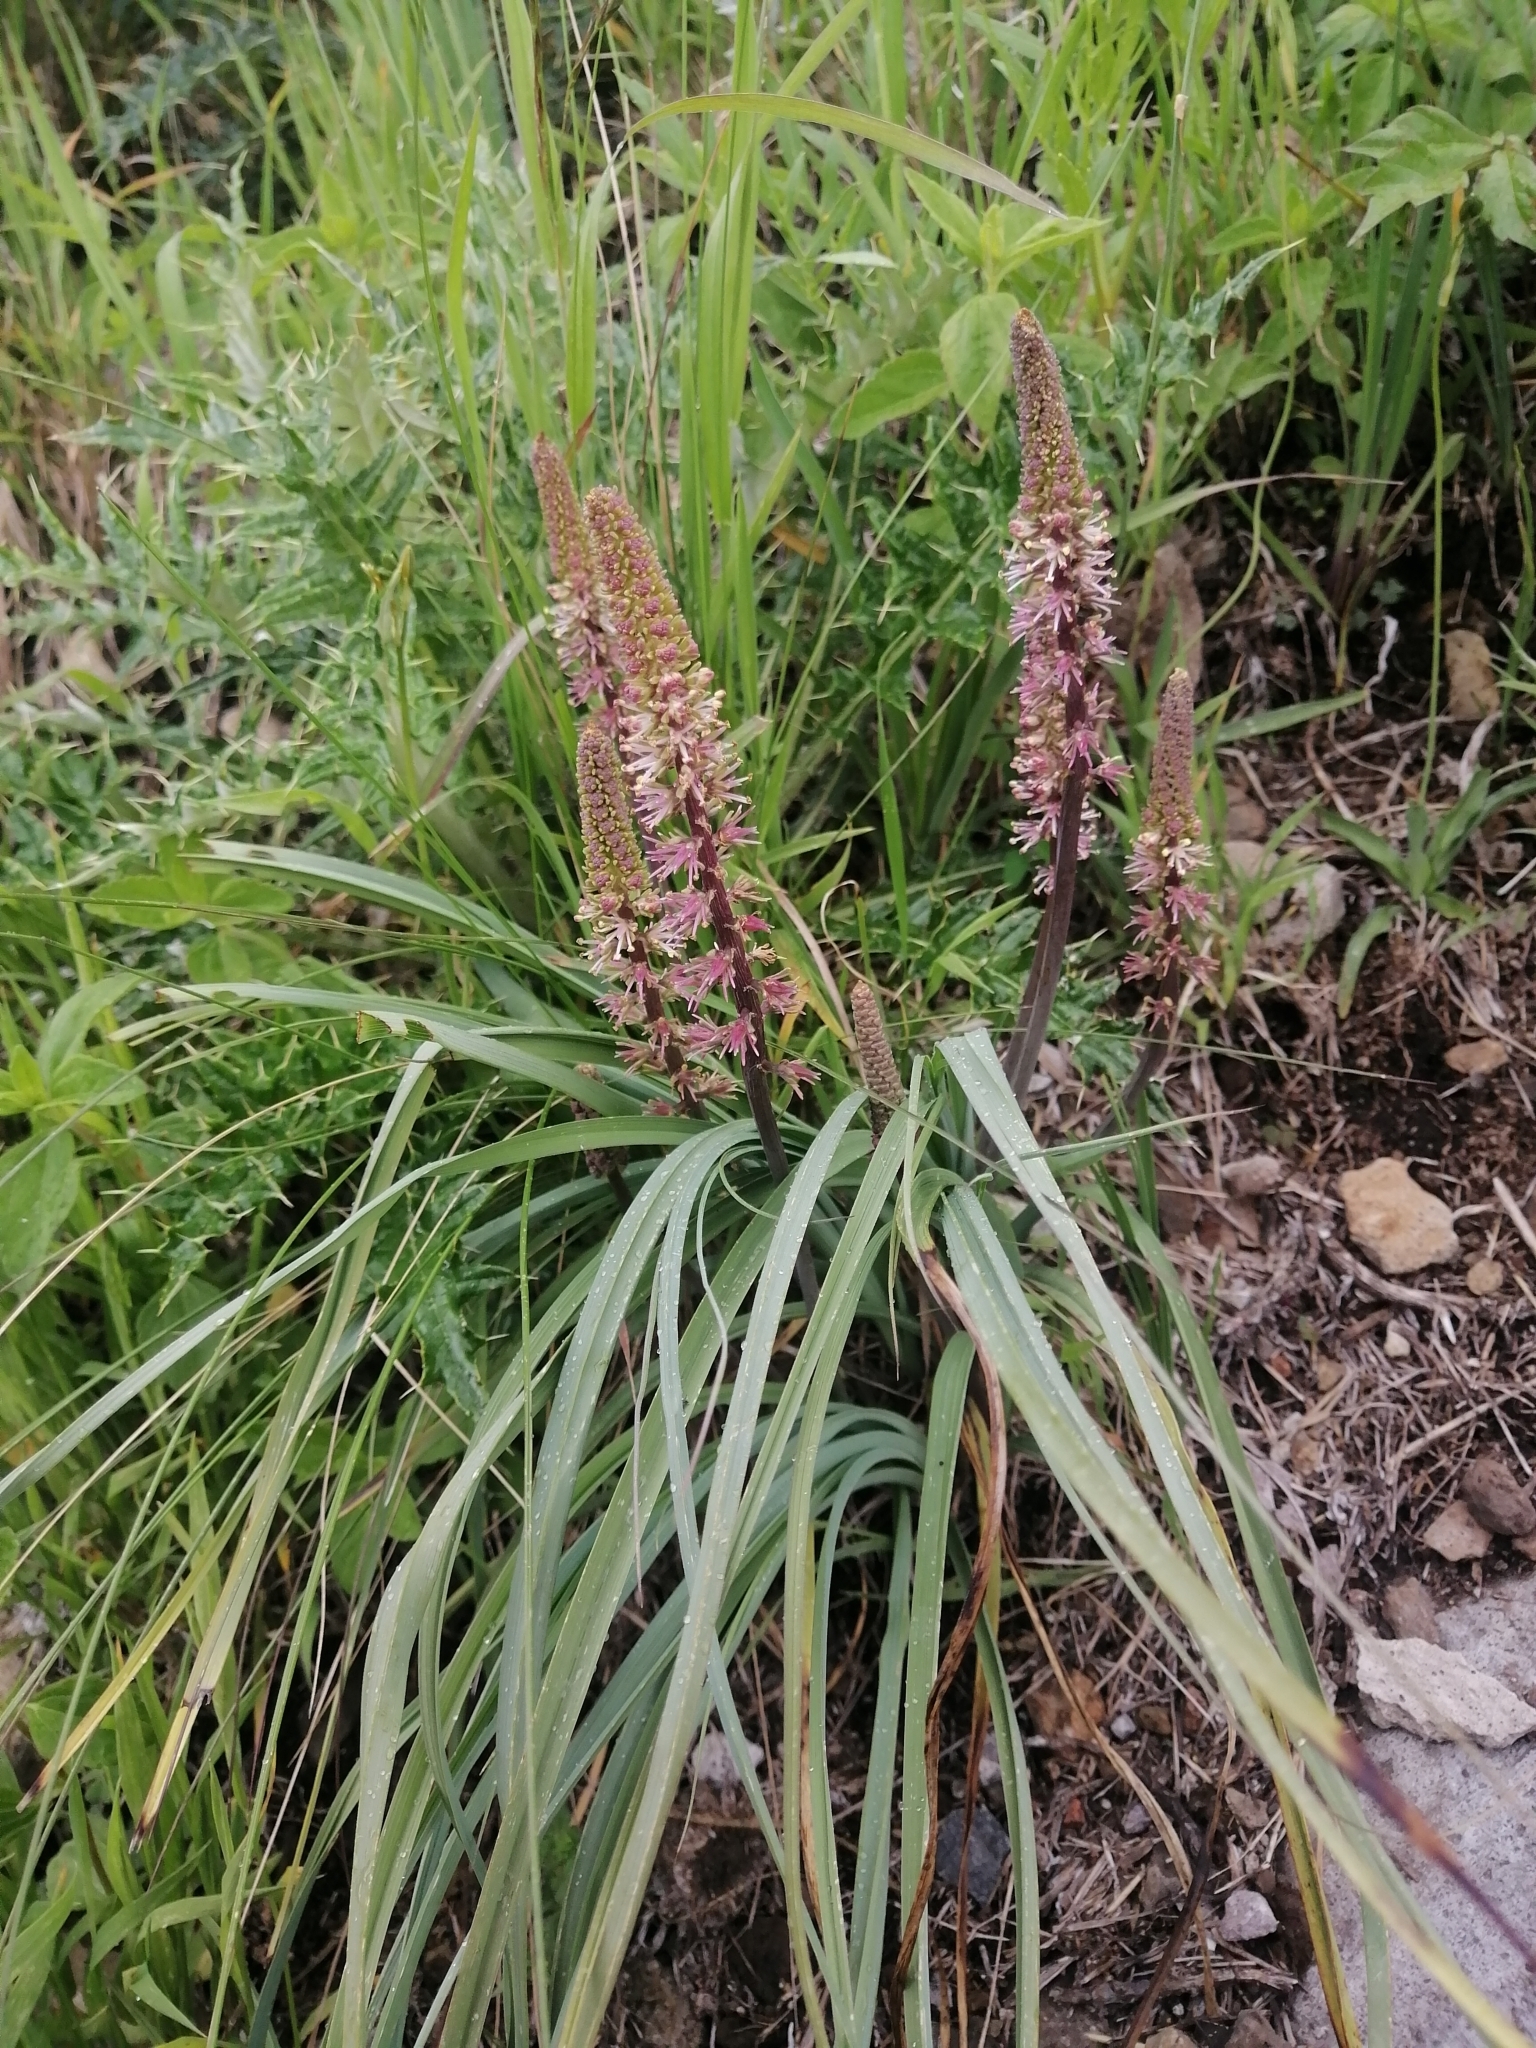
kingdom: Plantae
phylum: Tracheophyta
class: Liliopsida
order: Liliales
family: Melanthiaceae
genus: Schoenocaulon
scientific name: Schoenocaulon officinale
